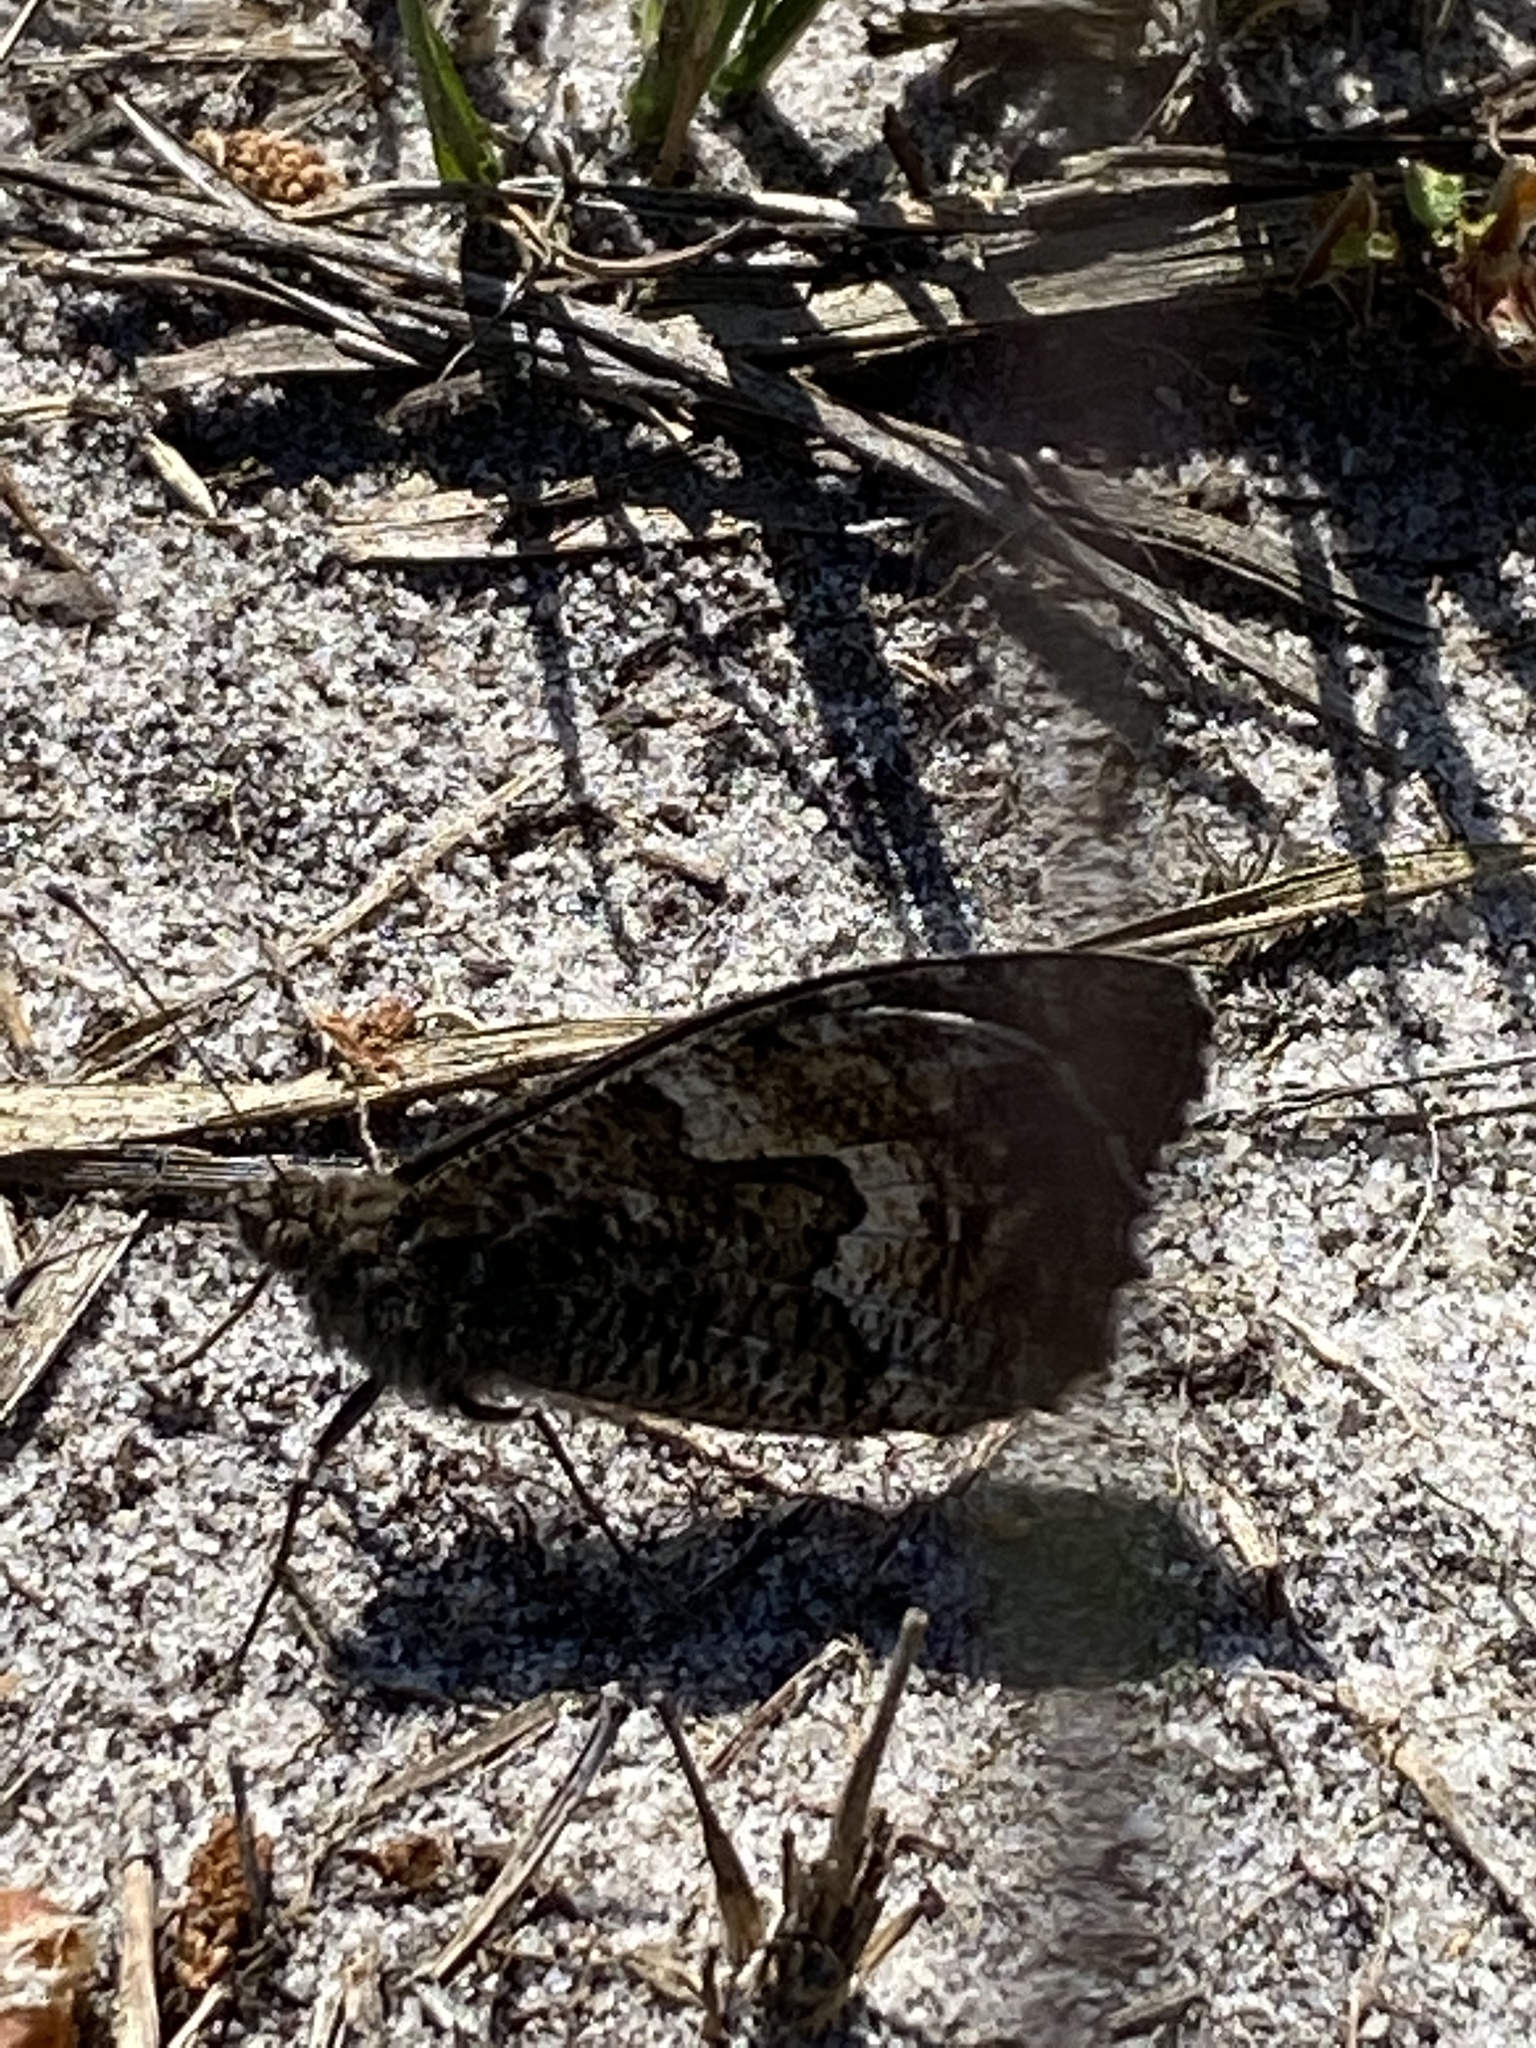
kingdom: Animalia
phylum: Arthropoda
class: Insecta
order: Lepidoptera
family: Nymphalidae
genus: Hipparchia
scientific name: Hipparchia semele
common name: Grayling
